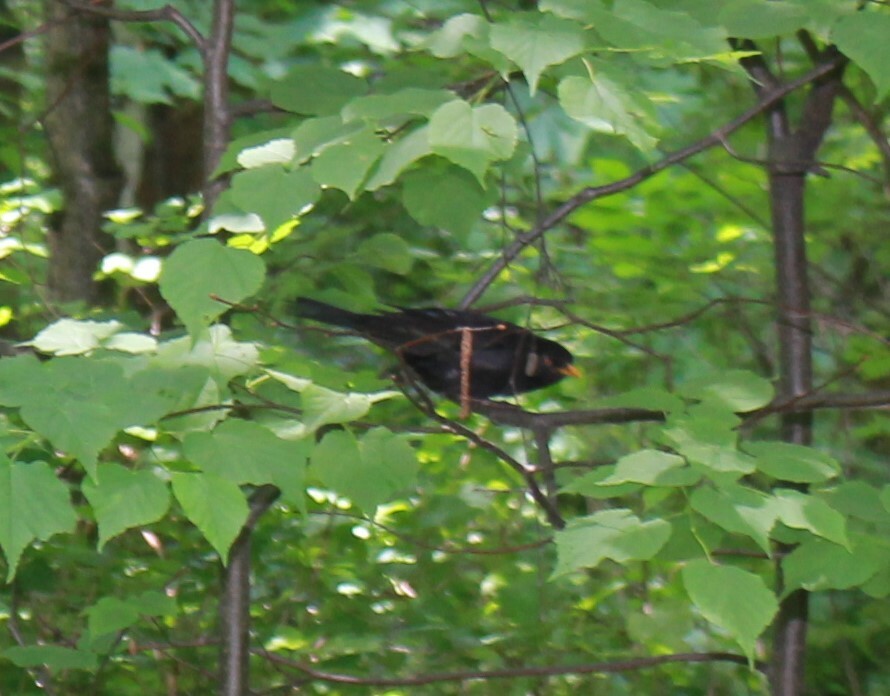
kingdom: Animalia
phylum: Chordata
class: Aves
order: Passeriformes
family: Turdidae
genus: Turdus
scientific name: Turdus merula
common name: Common blackbird
